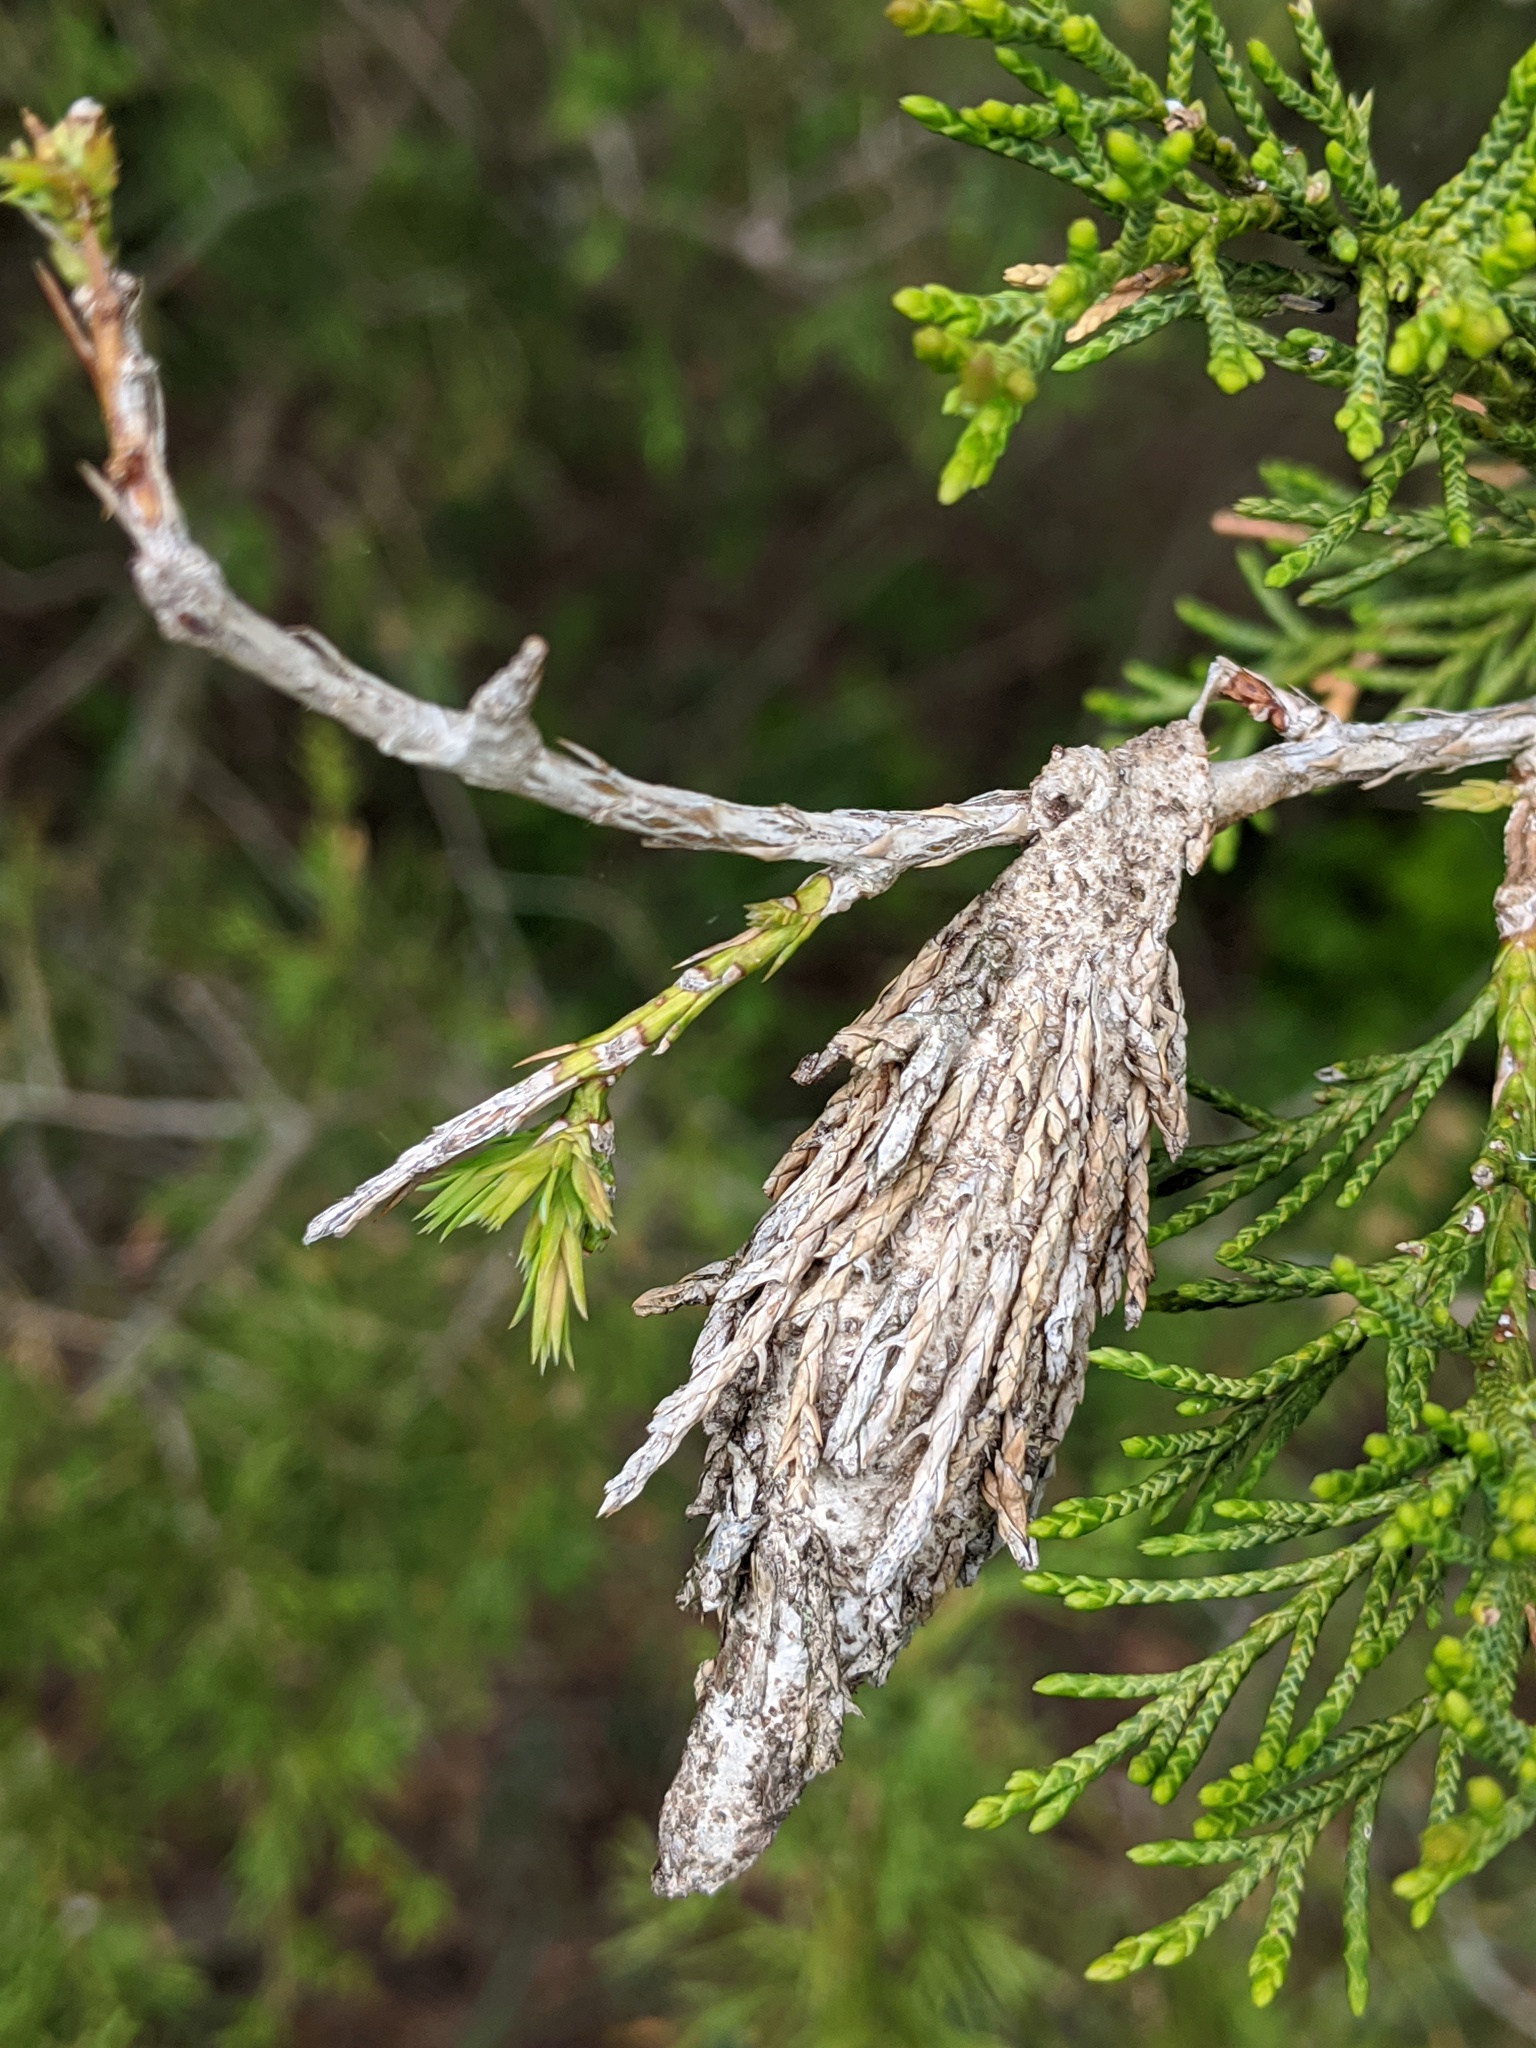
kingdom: Animalia
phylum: Arthropoda
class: Insecta
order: Lepidoptera
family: Psychidae
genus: Thyridopteryx
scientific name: Thyridopteryx ephemeraeformis
